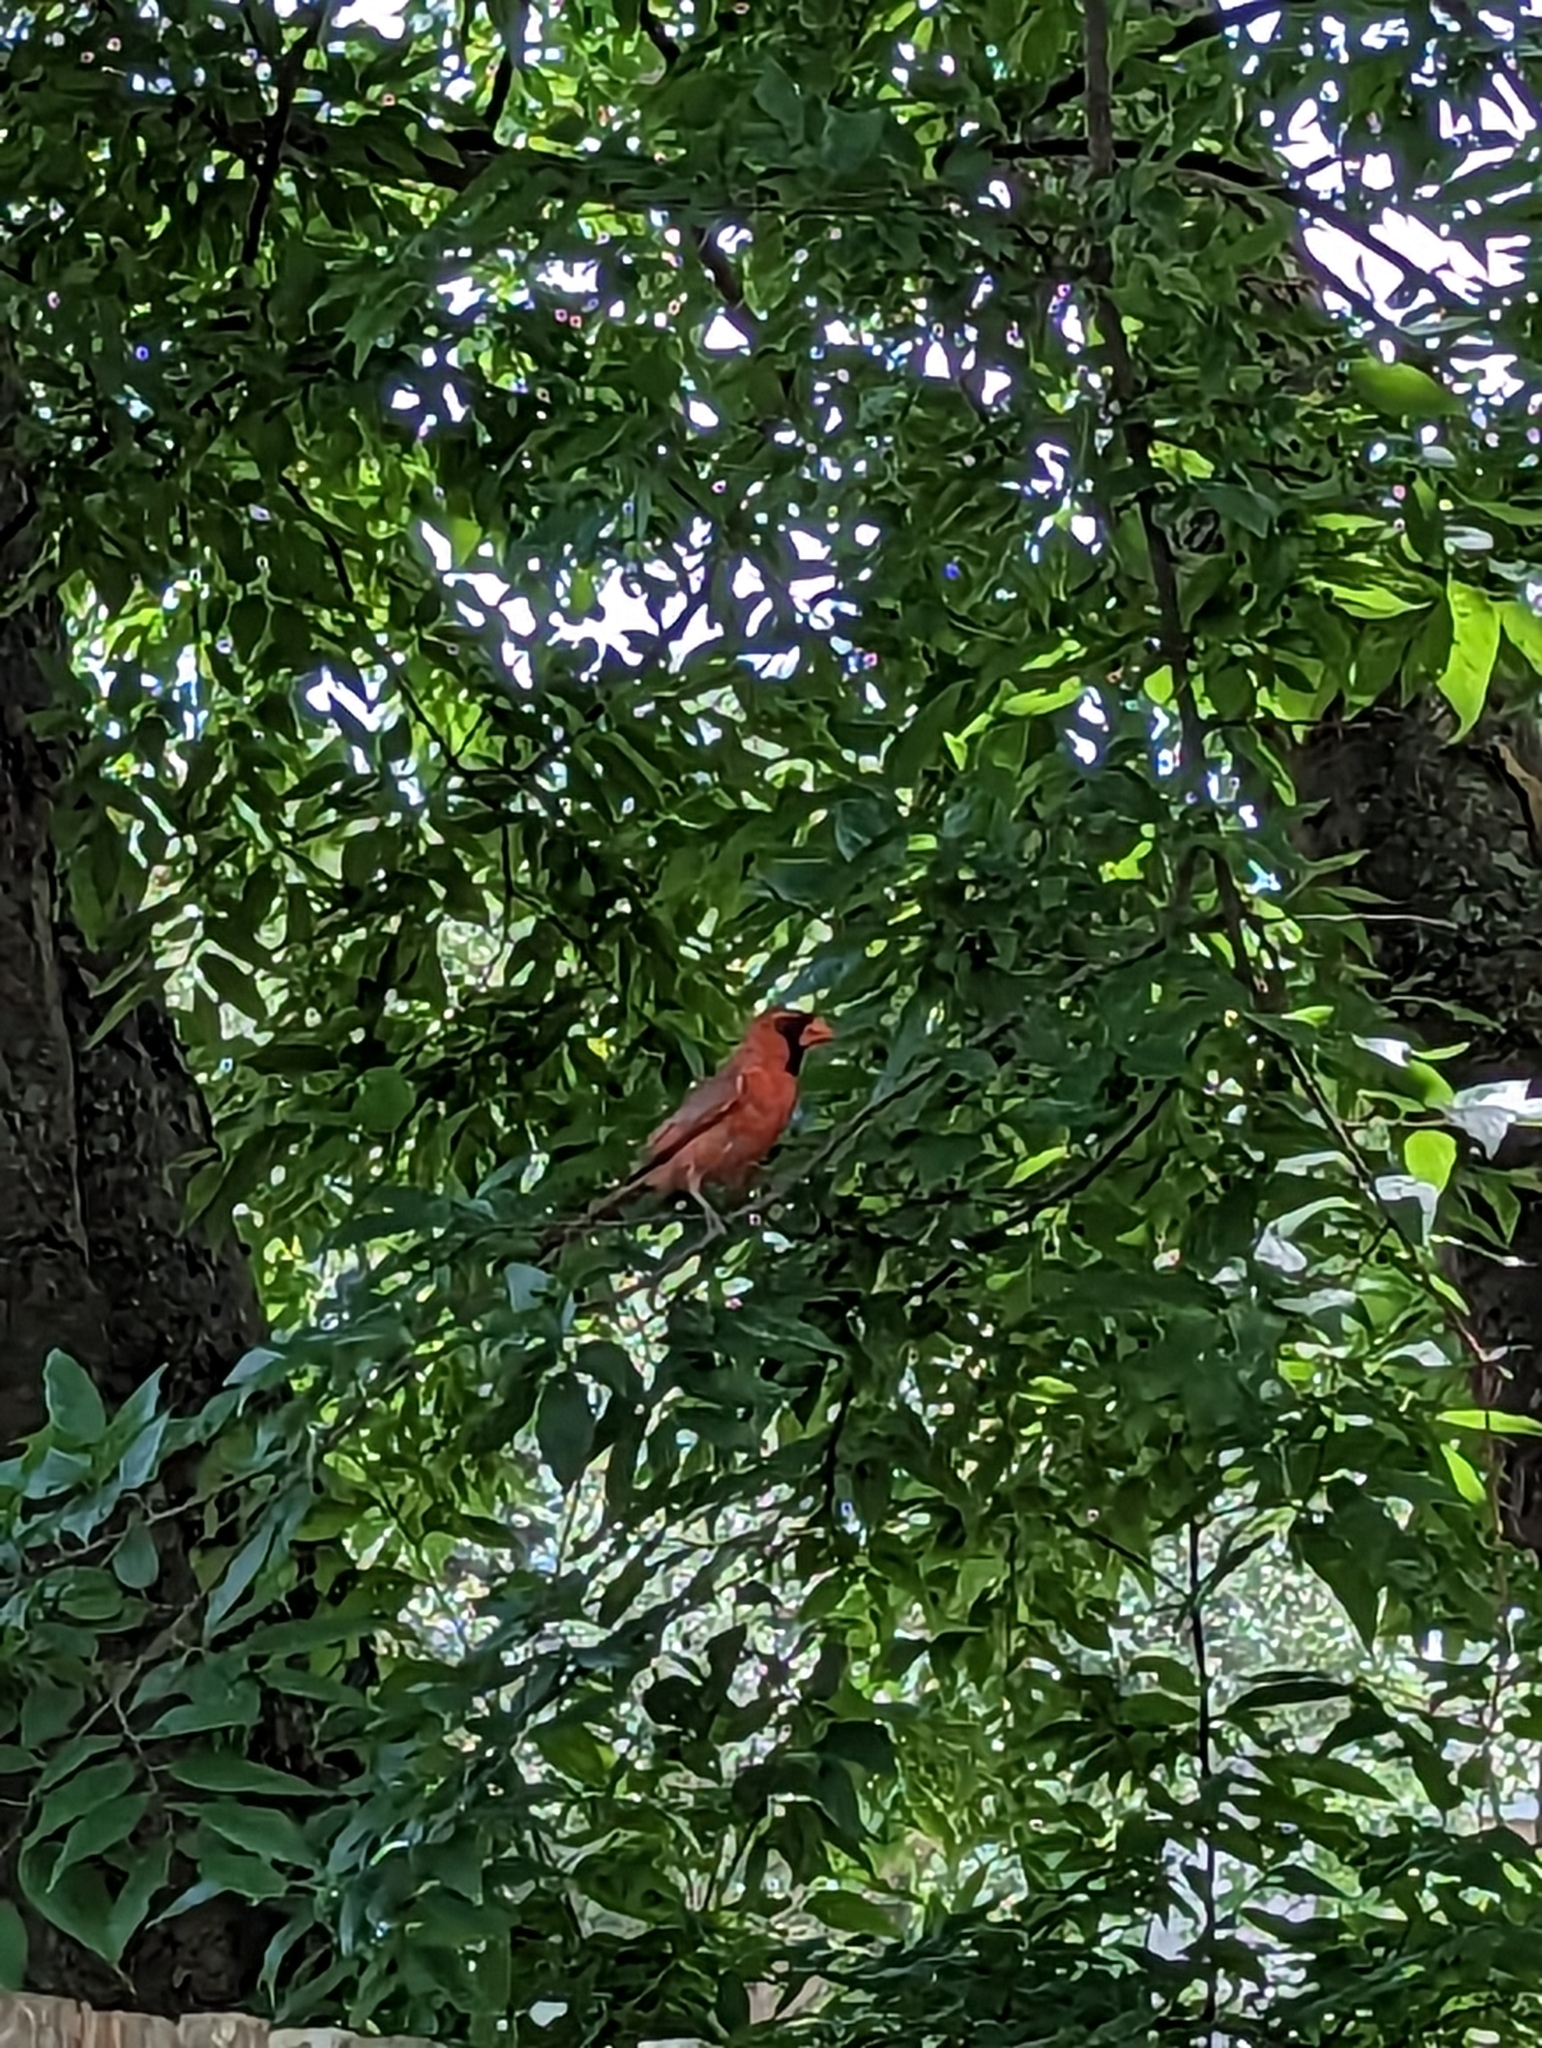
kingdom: Animalia
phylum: Chordata
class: Aves
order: Passeriformes
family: Cardinalidae
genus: Cardinalis
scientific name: Cardinalis cardinalis
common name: Northern cardinal
